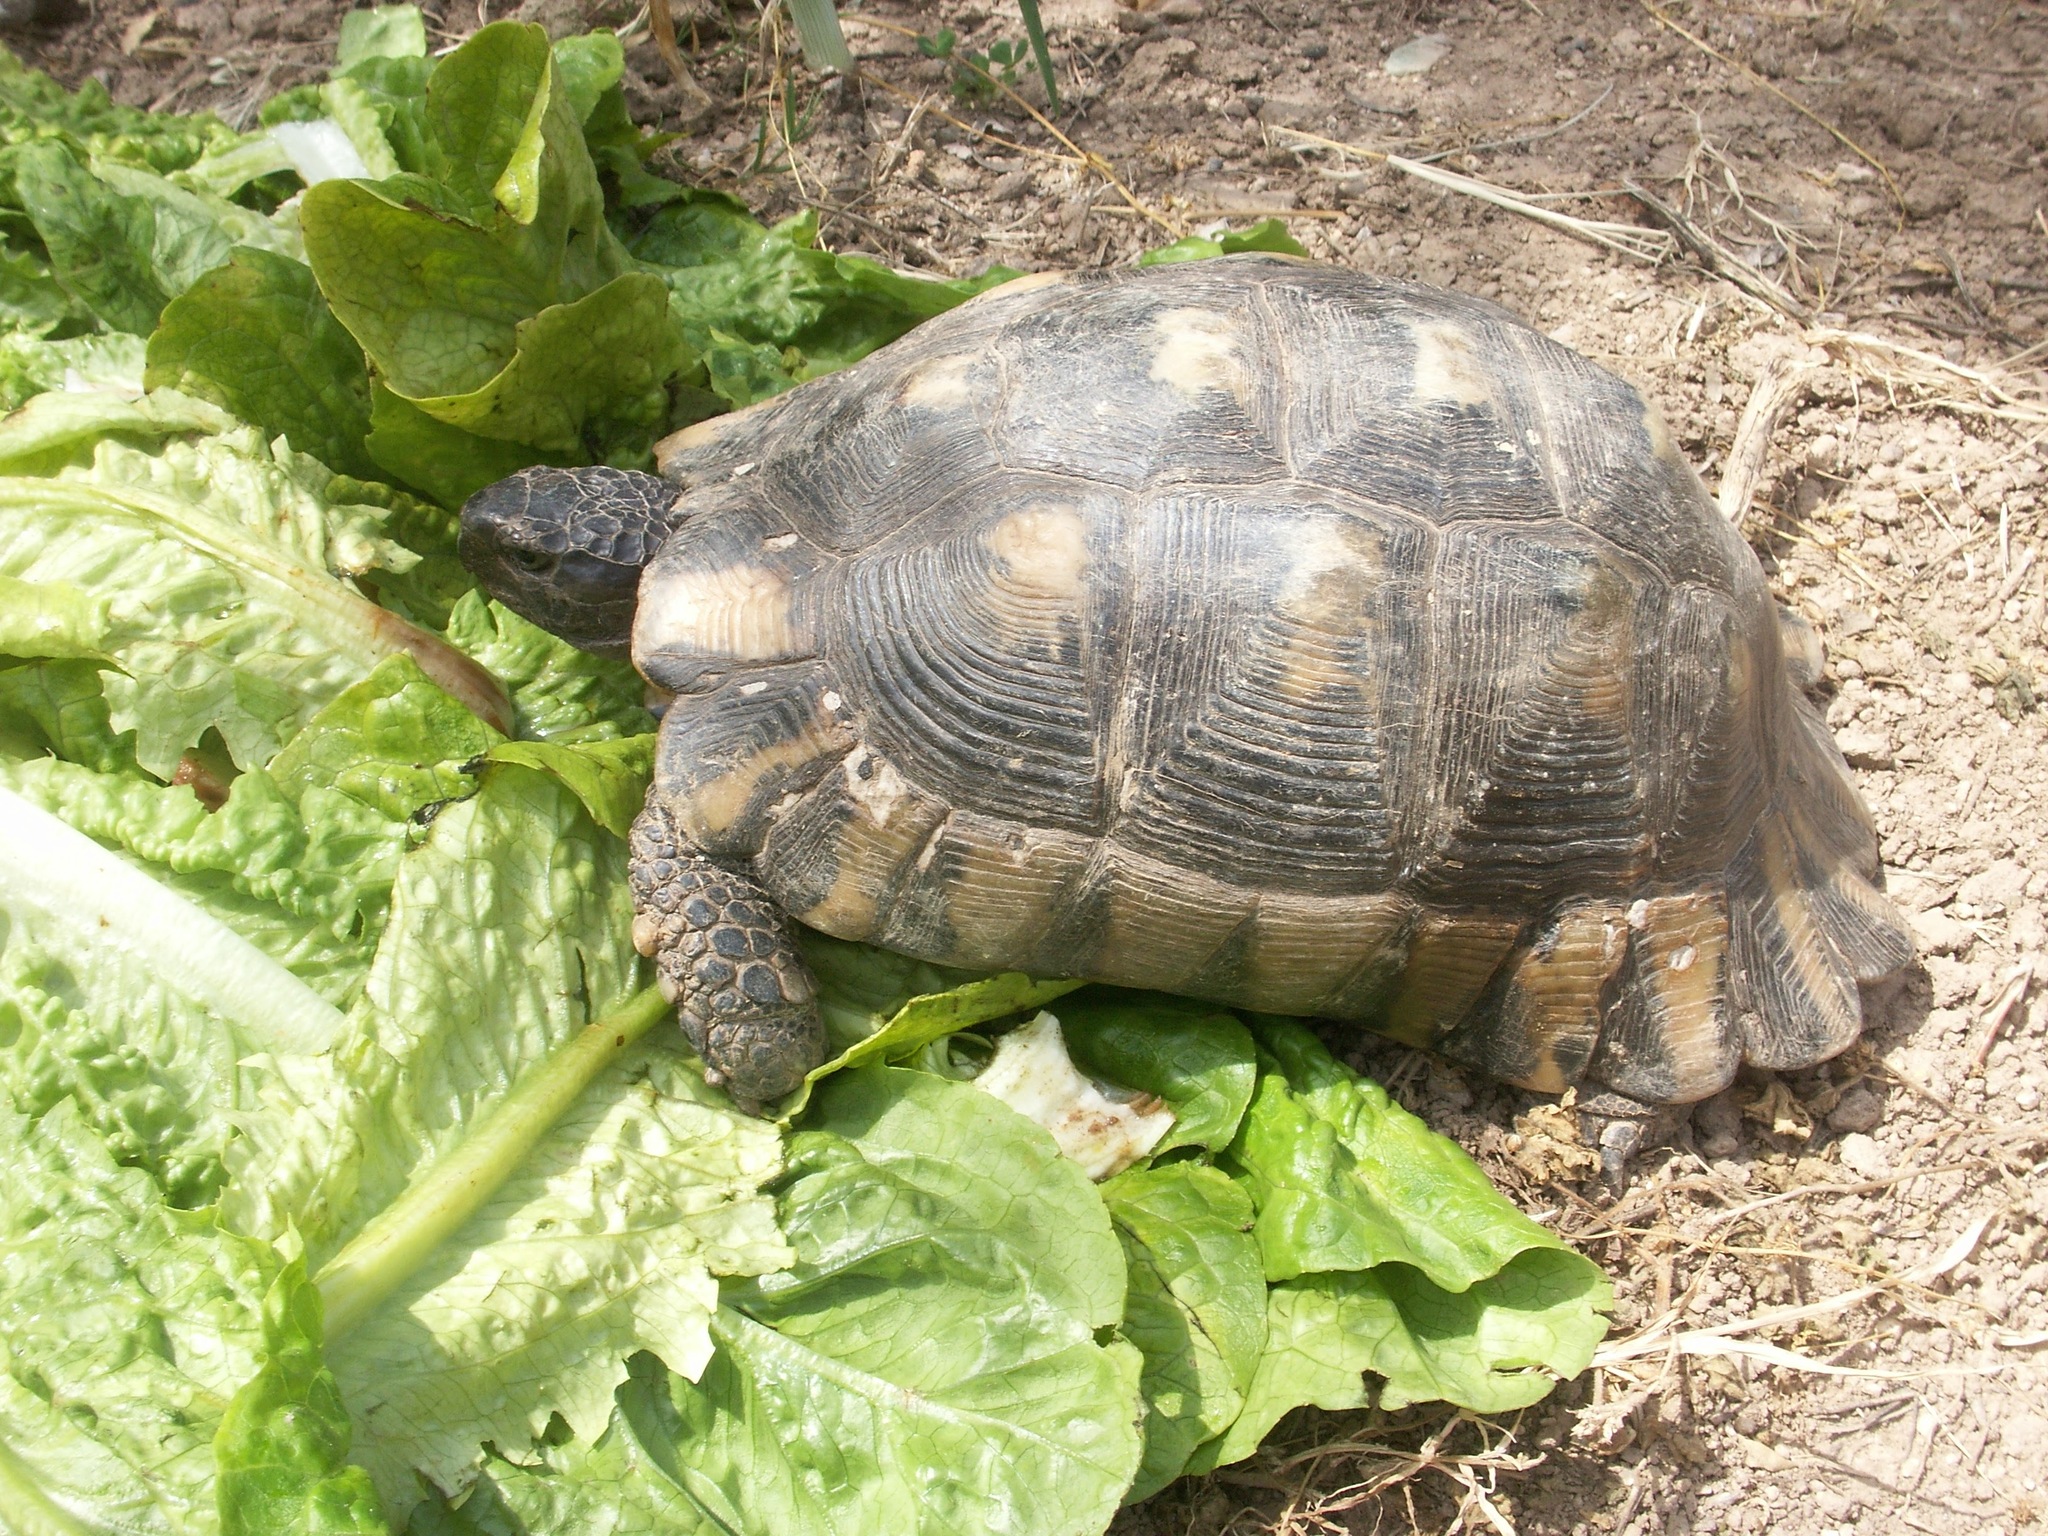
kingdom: Animalia
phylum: Chordata
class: Testudines
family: Testudinidae
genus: Testudo
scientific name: Testudo marginata
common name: Marginated tortoise
